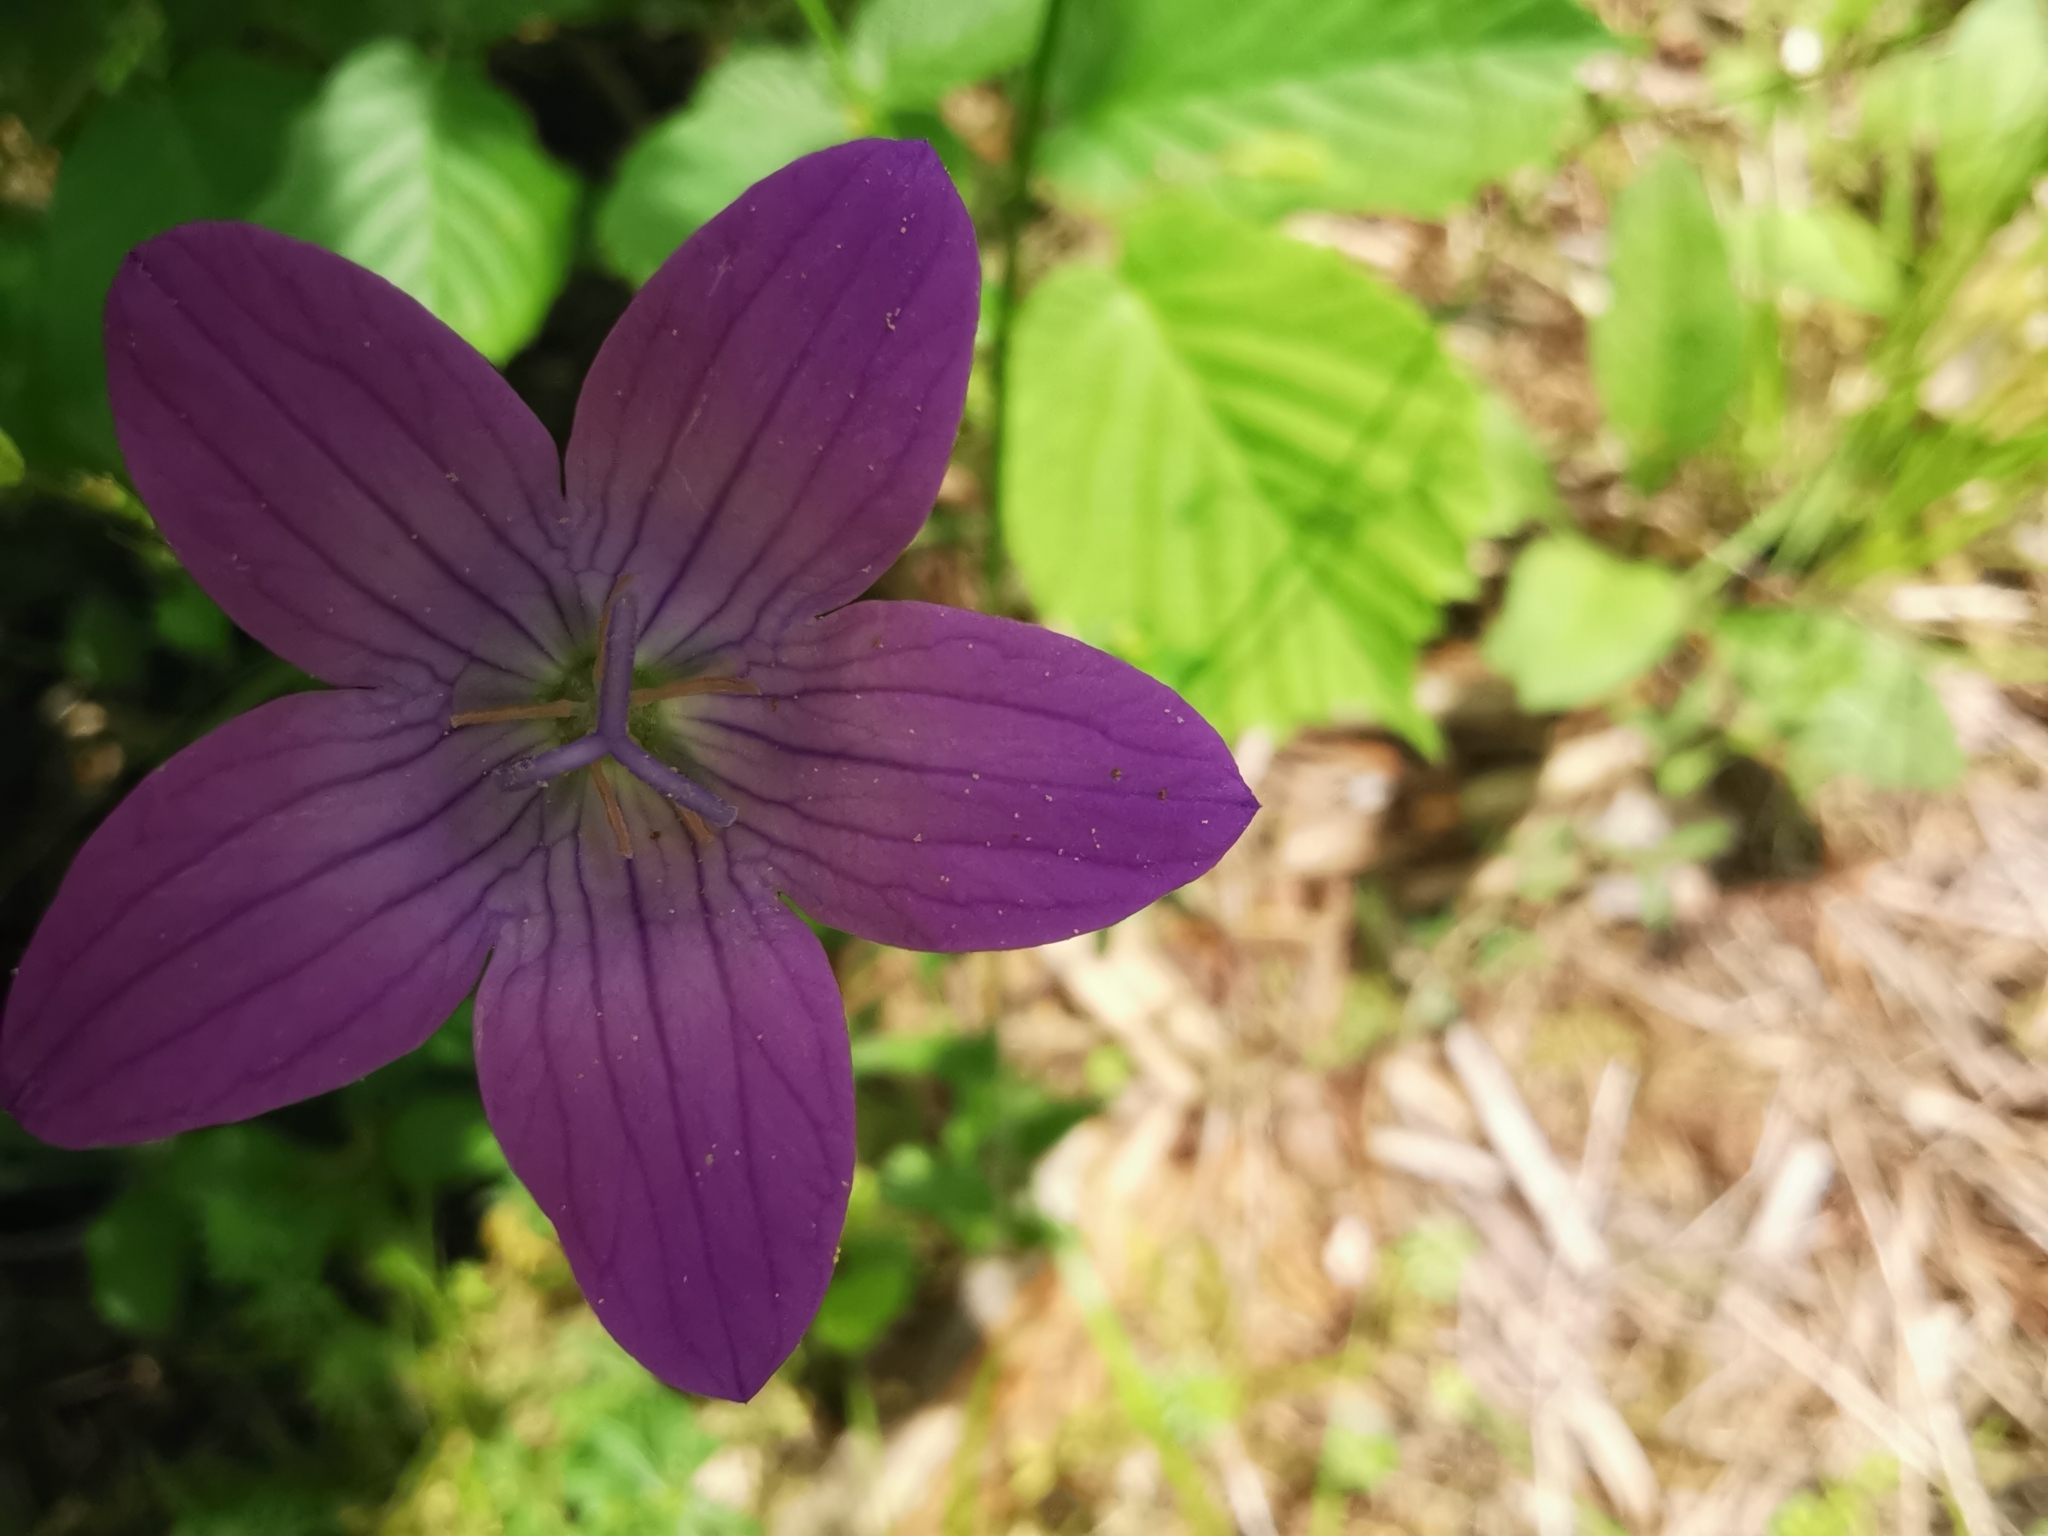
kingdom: Plantae
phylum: Tracheophyta
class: Magnoliopsida
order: Asterales
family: Campanulaceae
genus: Campanula
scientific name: Campanula patula
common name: Spreading bellflower
